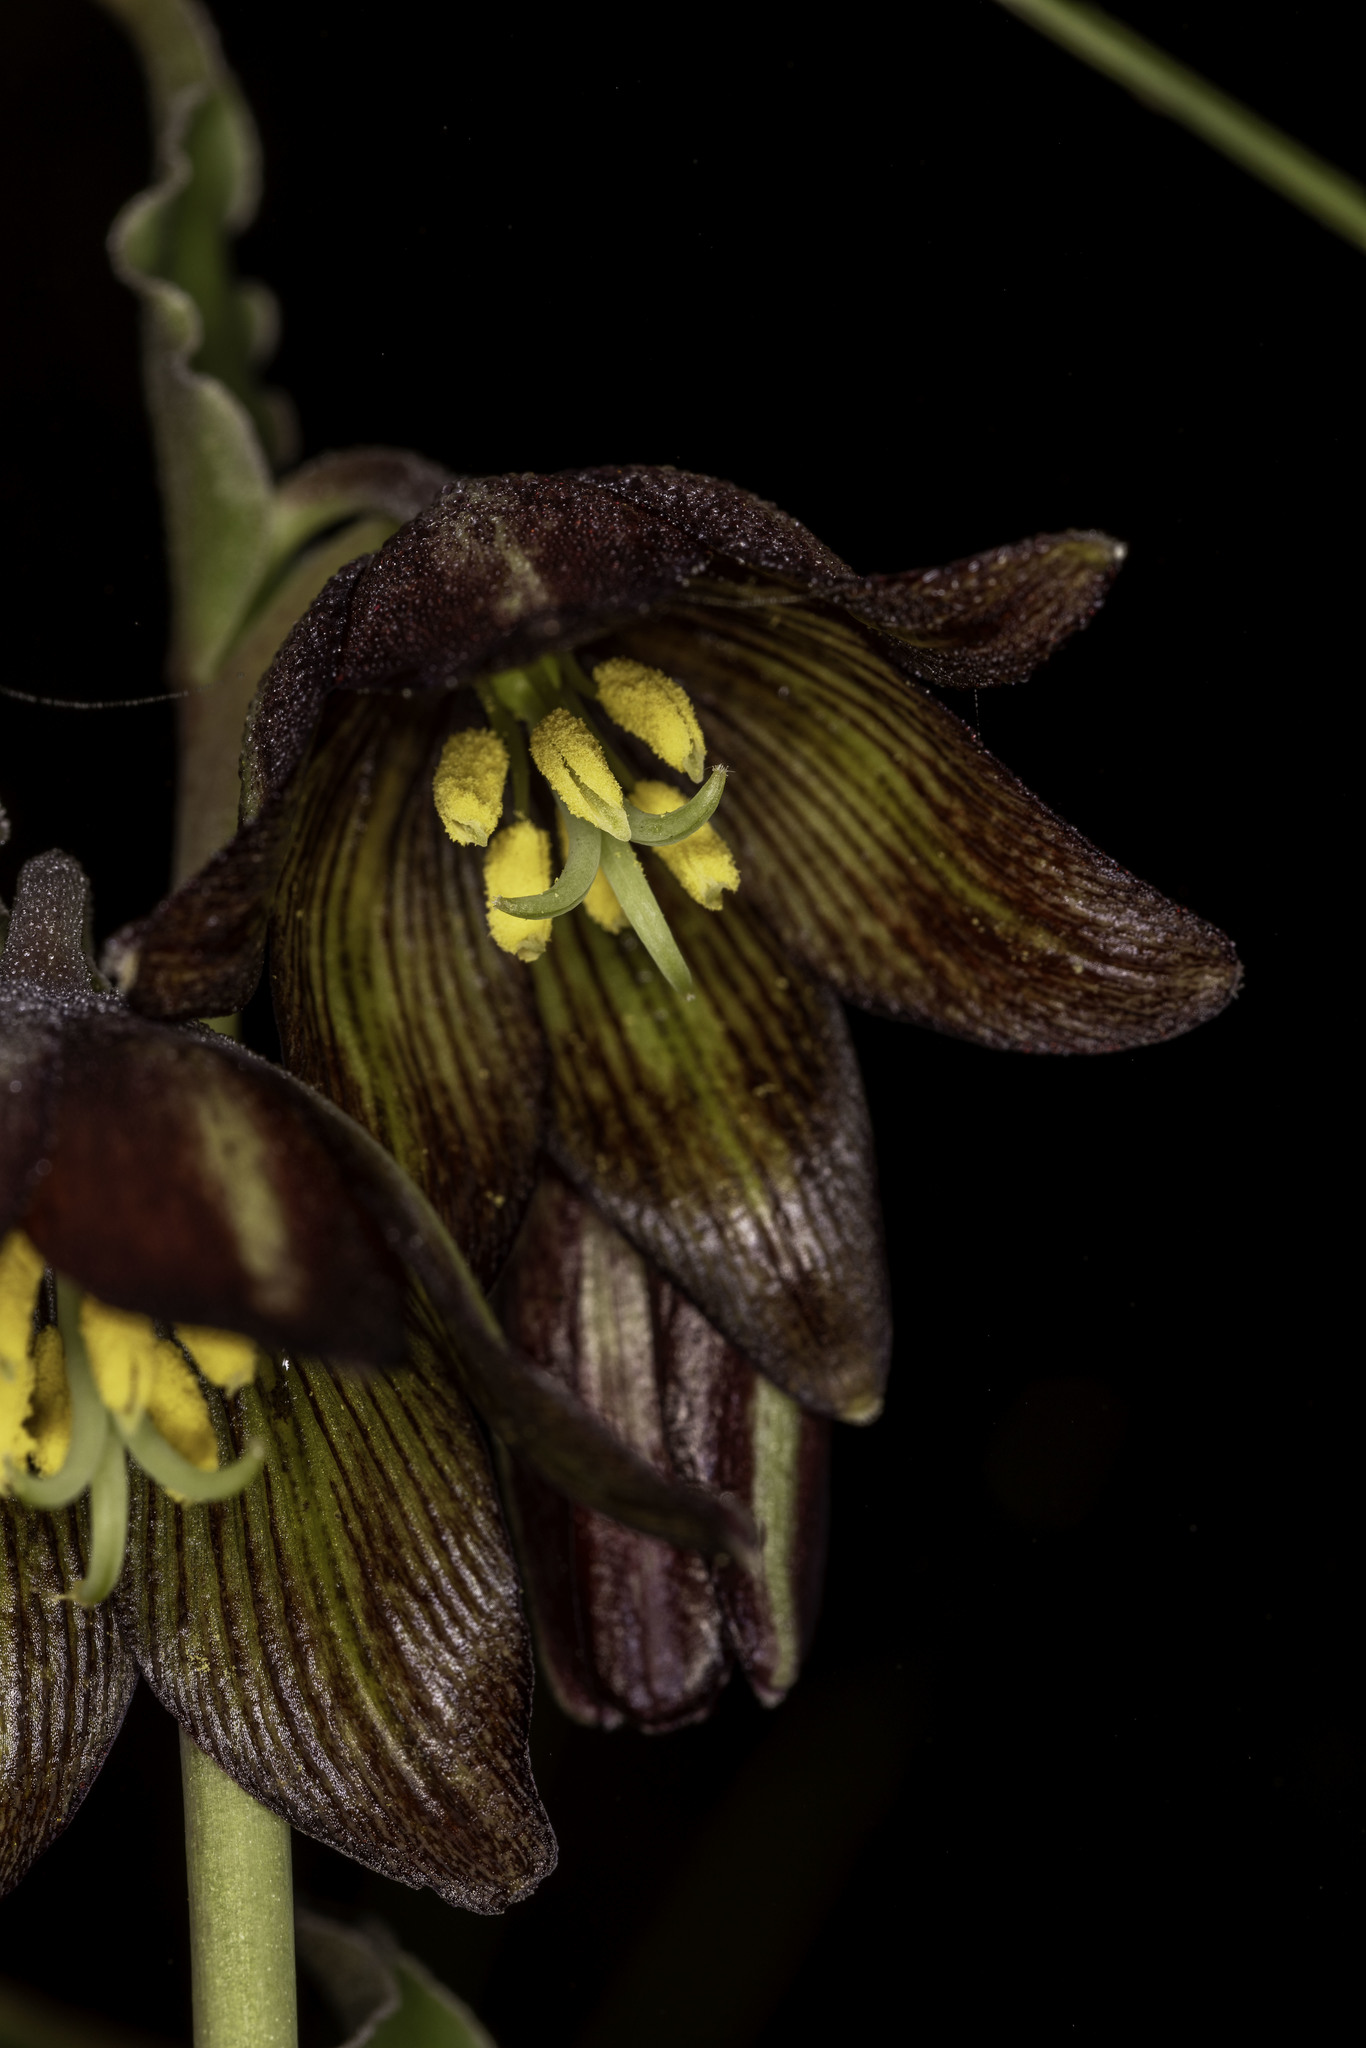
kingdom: Plantae
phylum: Tracheophyta
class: Liliopsida
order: Liliales
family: Liliaceae
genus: Fritillaria
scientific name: Fritillaria biflora
